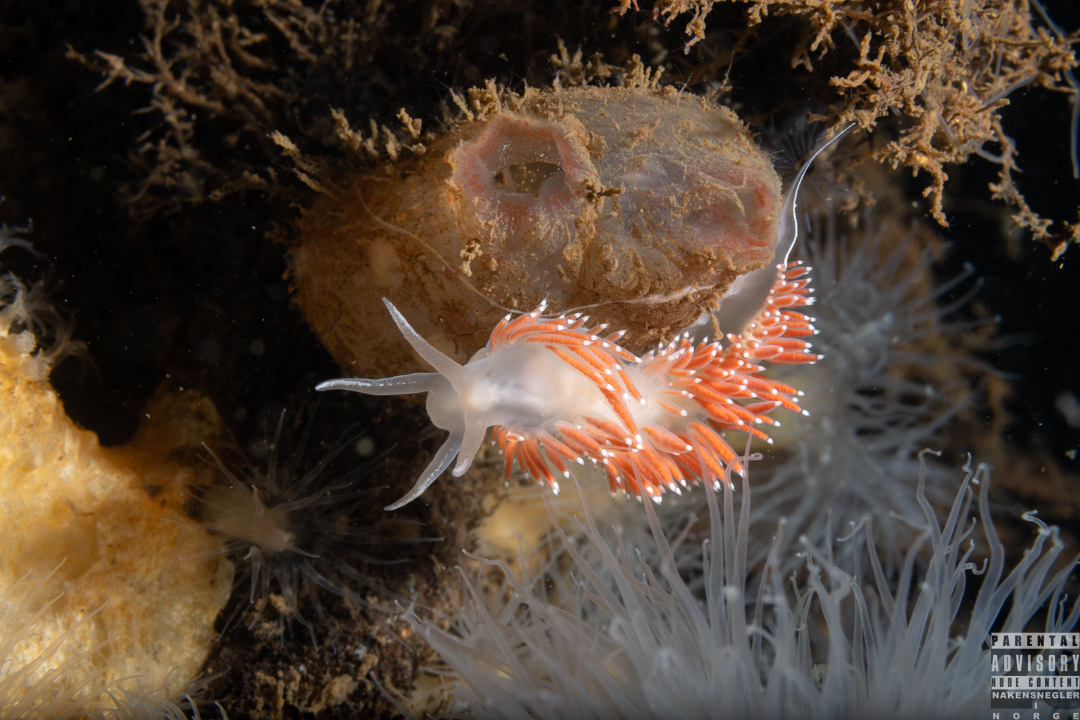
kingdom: Animalia
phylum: Mollusca
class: Gastropoda
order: Nudibranchia
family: Coryphellidae
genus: Coryphella
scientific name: Coryphella verrucosa
